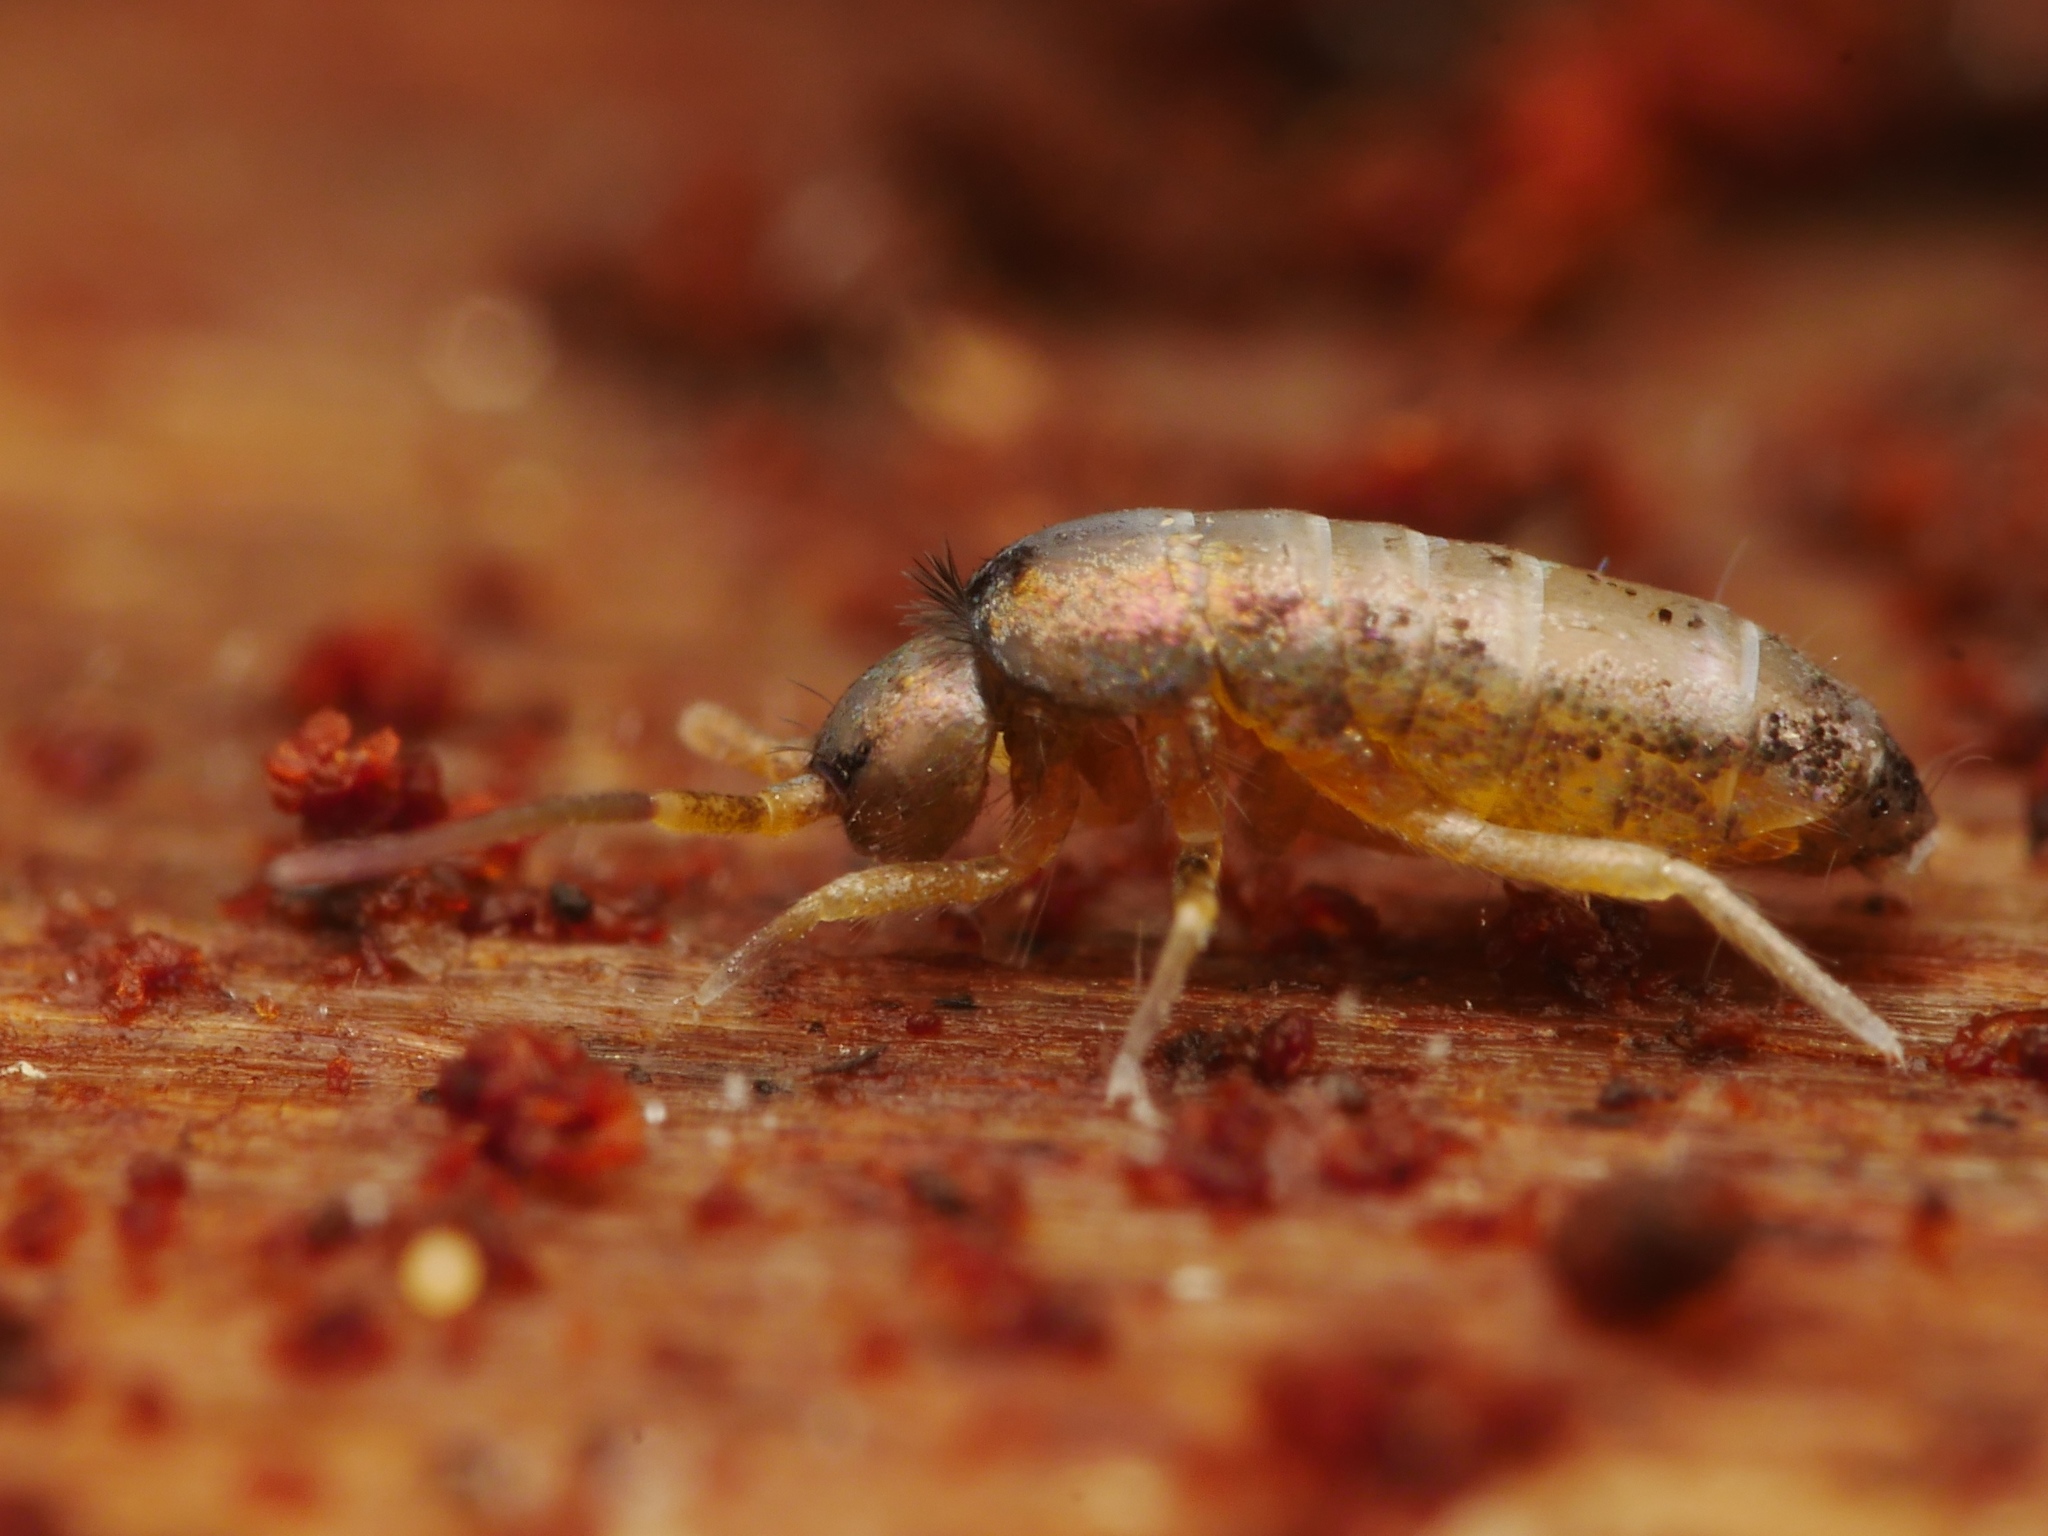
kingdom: Animalia
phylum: Arthropoda
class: Collembola
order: Entomobryomorpha
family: Tomoceridae
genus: Tomocerus
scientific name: Tomocerus vulgaris
